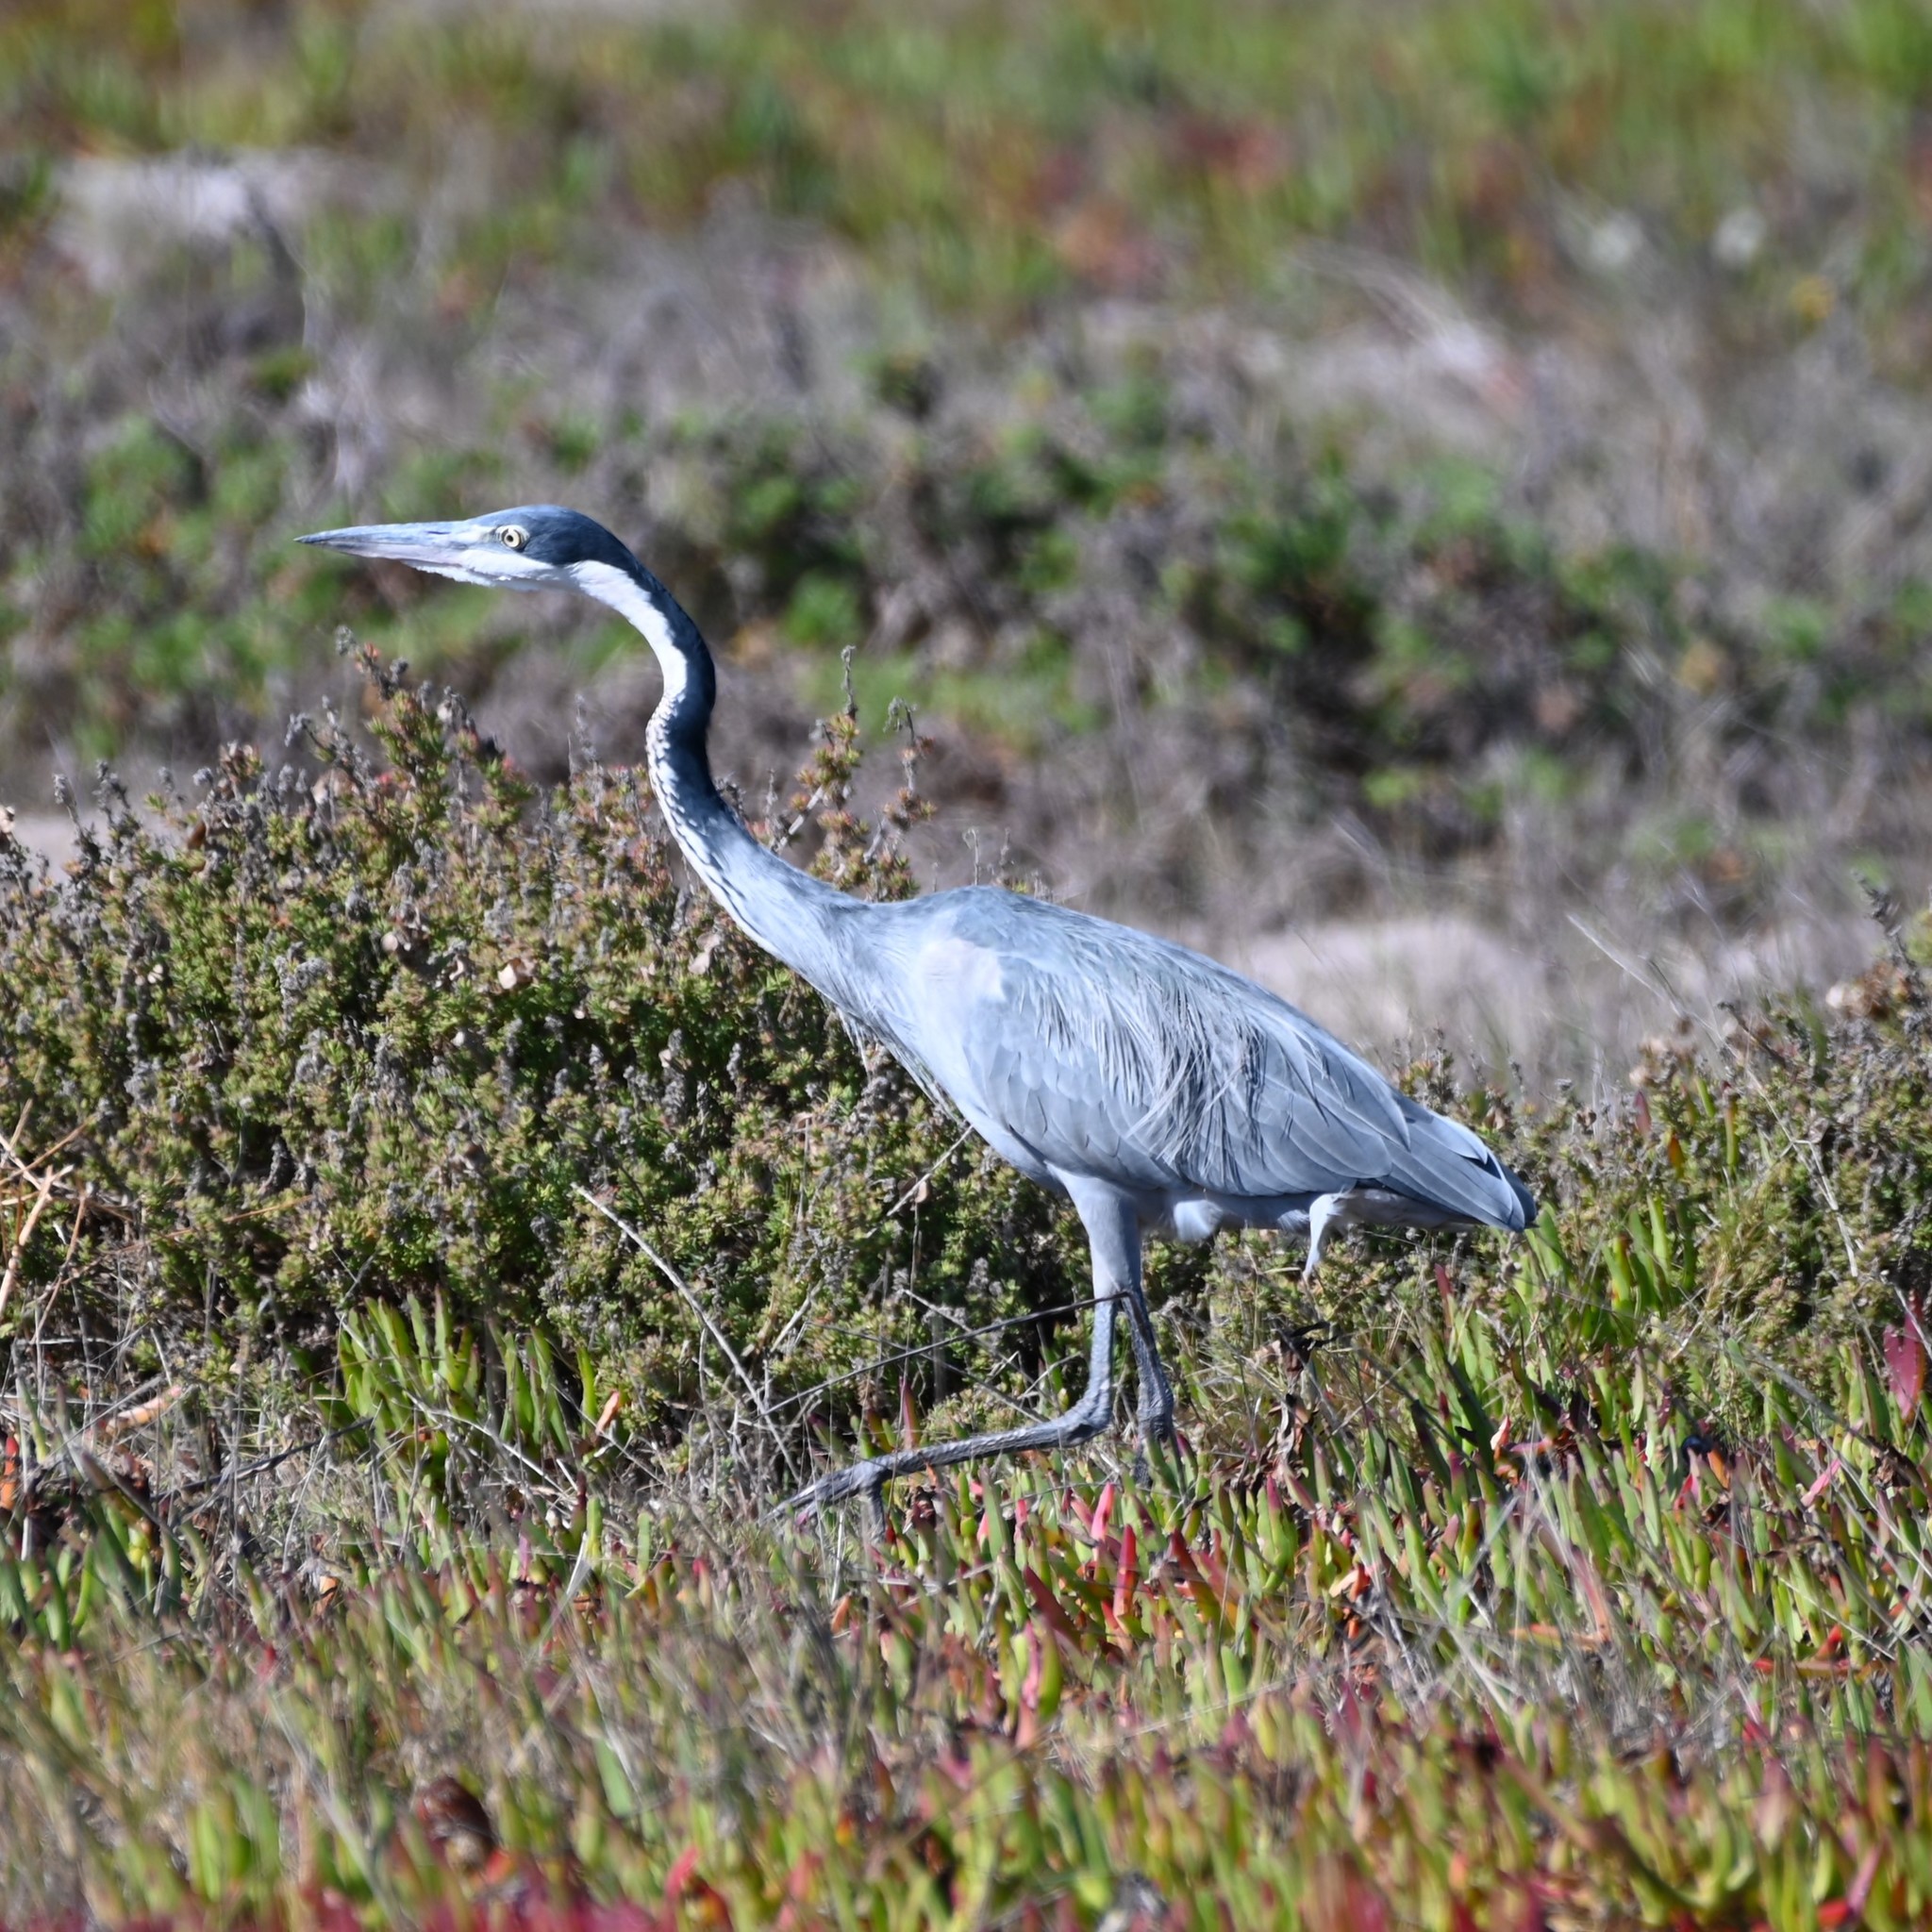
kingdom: Animalia
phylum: Chordata
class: Aves
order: Pelecaniformes
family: Ardeidae
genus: Ardea
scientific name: Ardea melanocephala
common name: Black-headed heron
